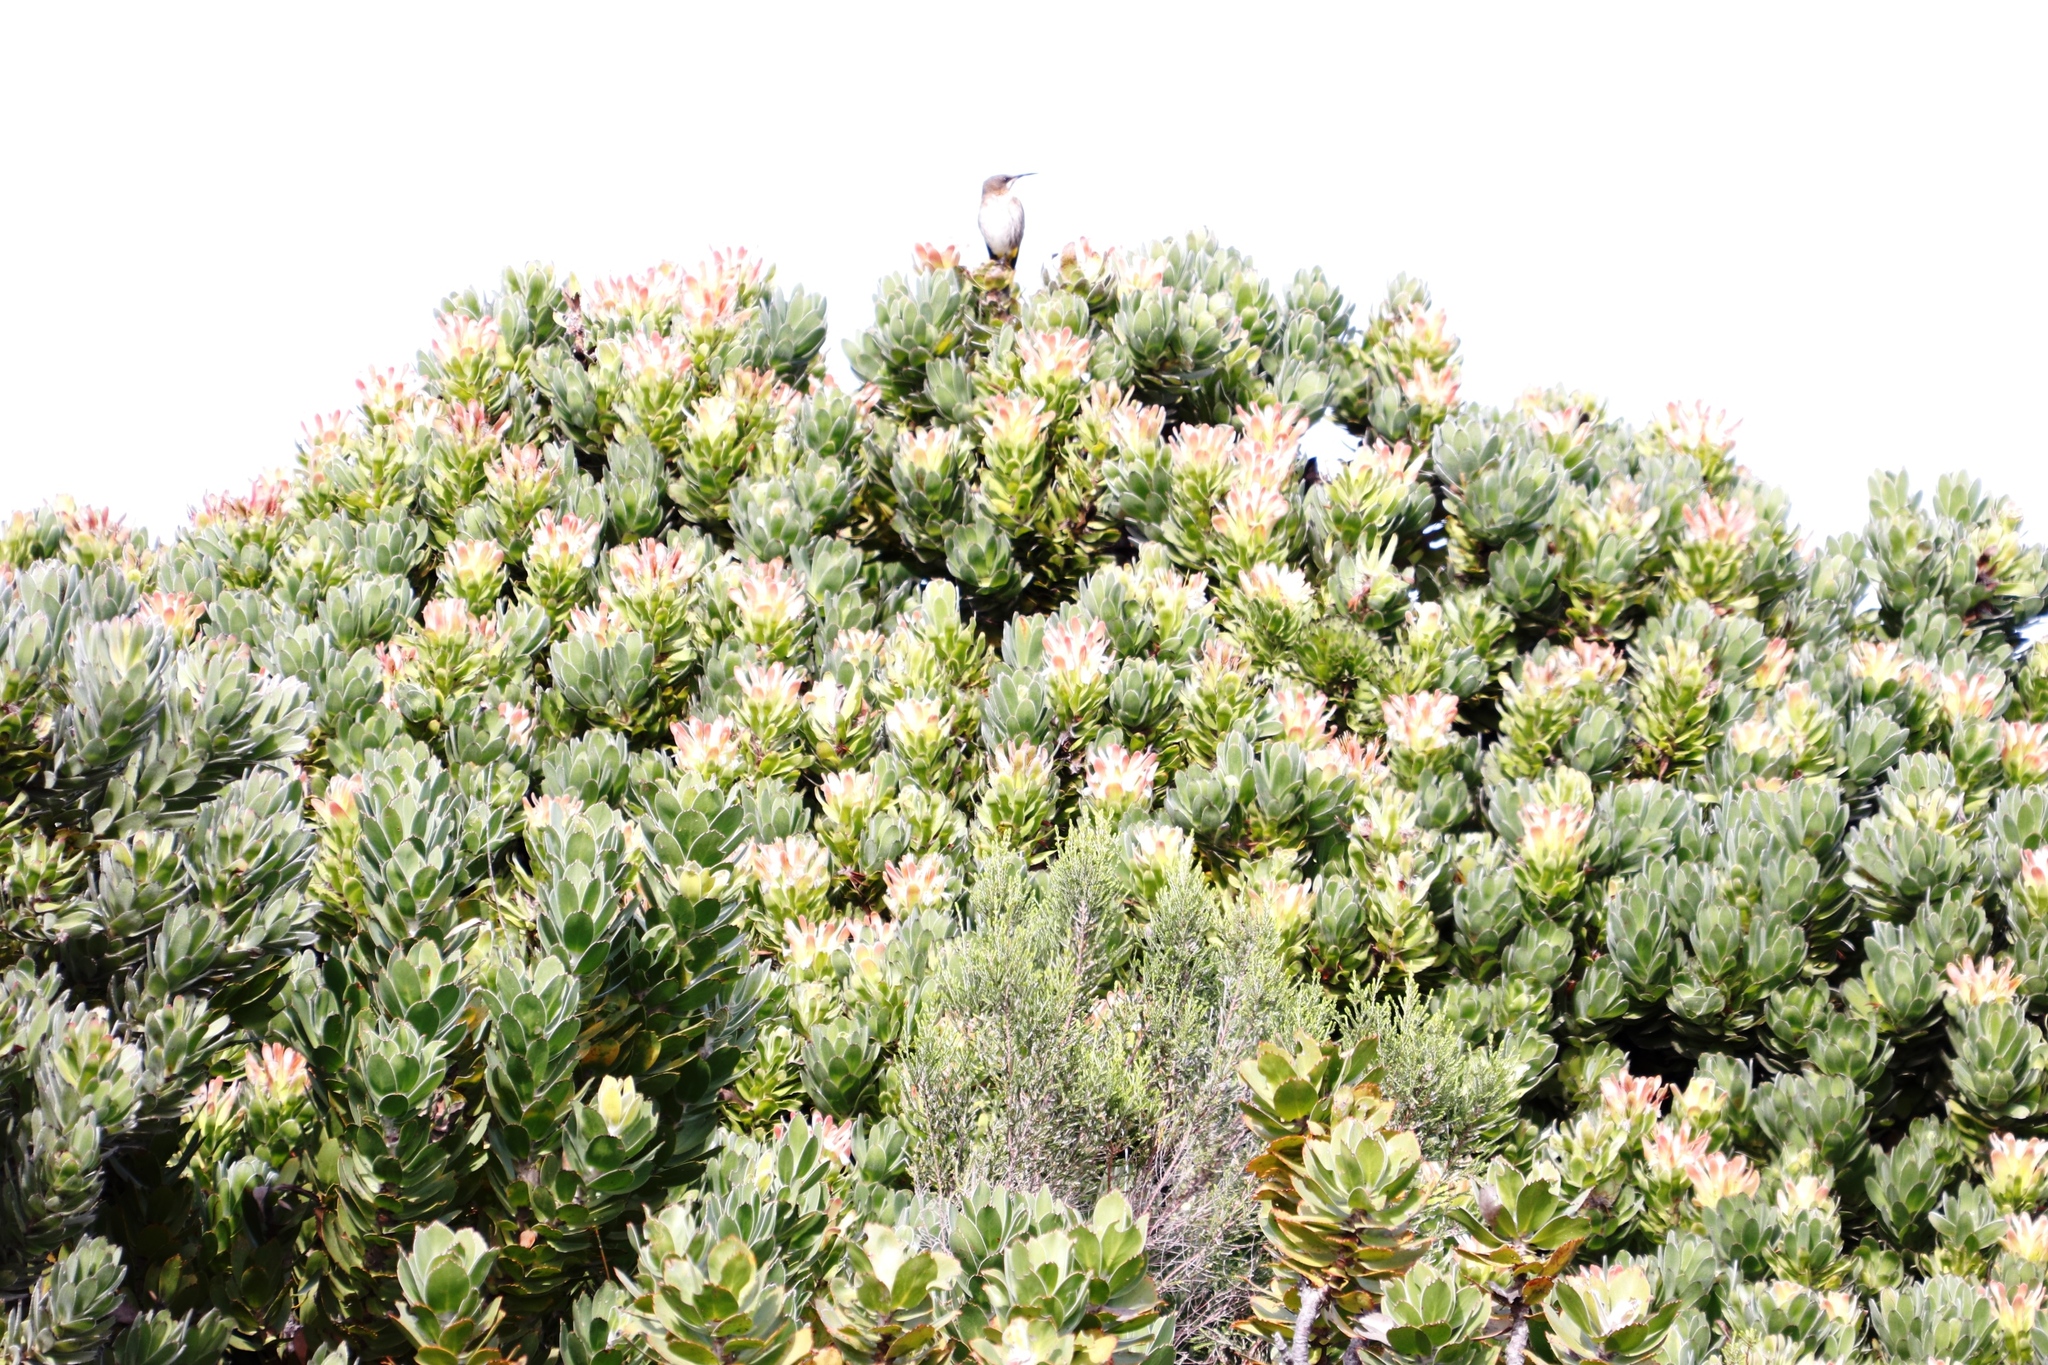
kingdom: Animalia
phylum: Chordata
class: Aves
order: Passeriformes
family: Promeropidae
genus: Promerops
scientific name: Promerops cafer
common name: Cape sugarbird
